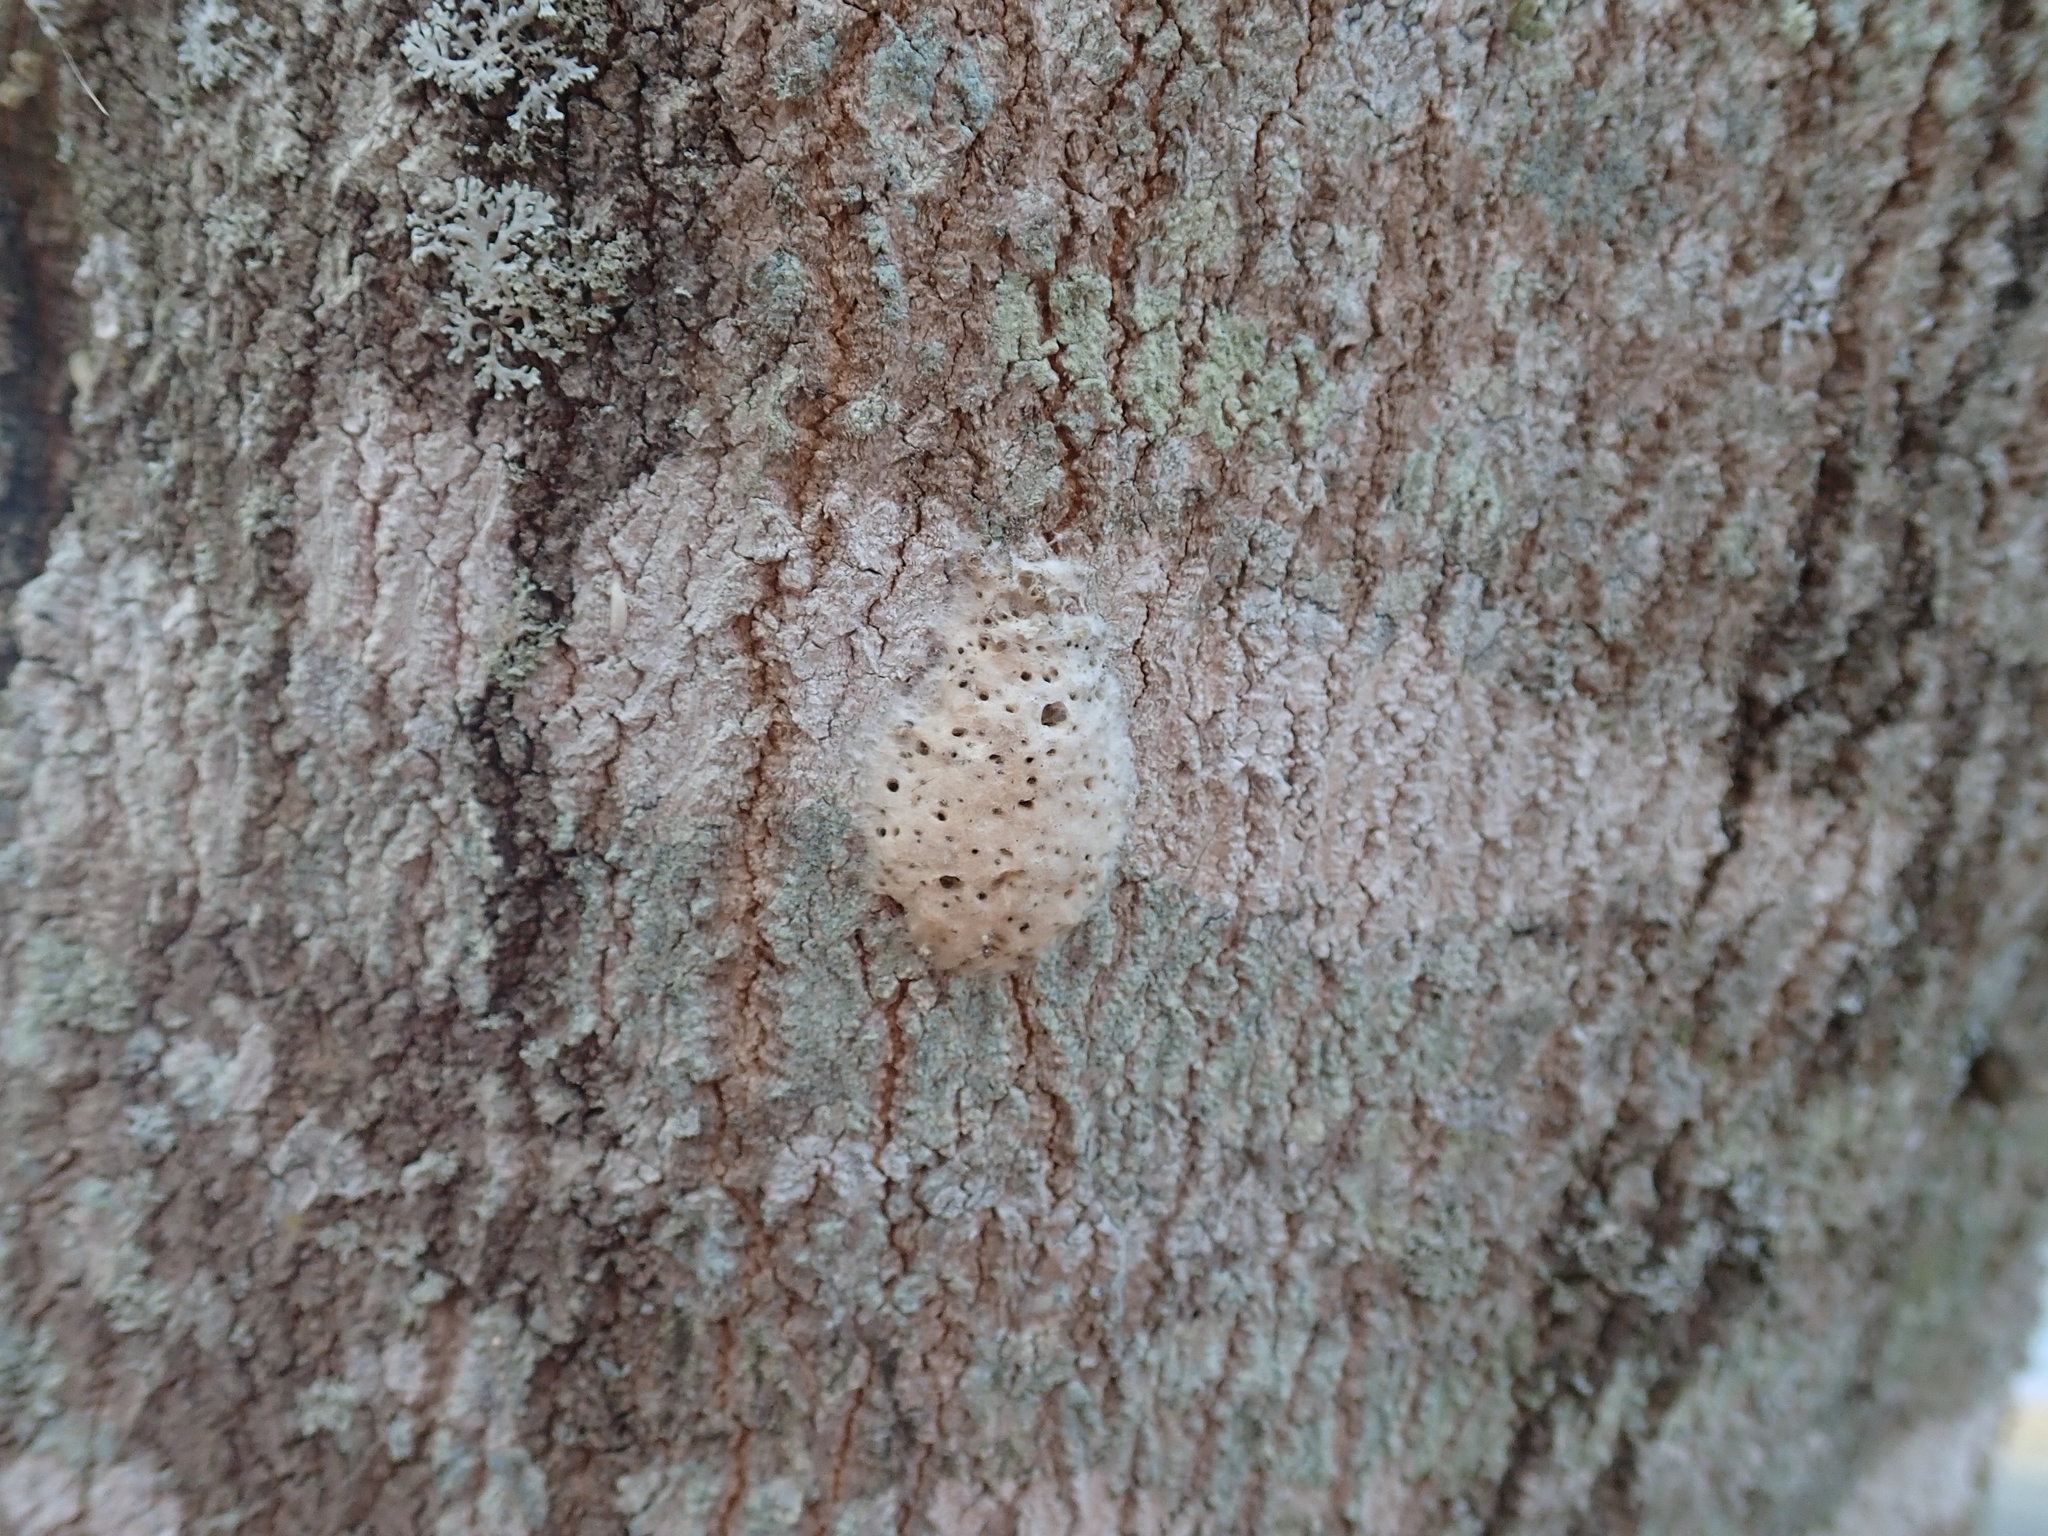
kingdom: Animalia
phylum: Arthropoda
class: Insecta
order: Lepidoptera
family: Erebidae
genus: Lymantria
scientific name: Lymantria dispar
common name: Gypsy moth
